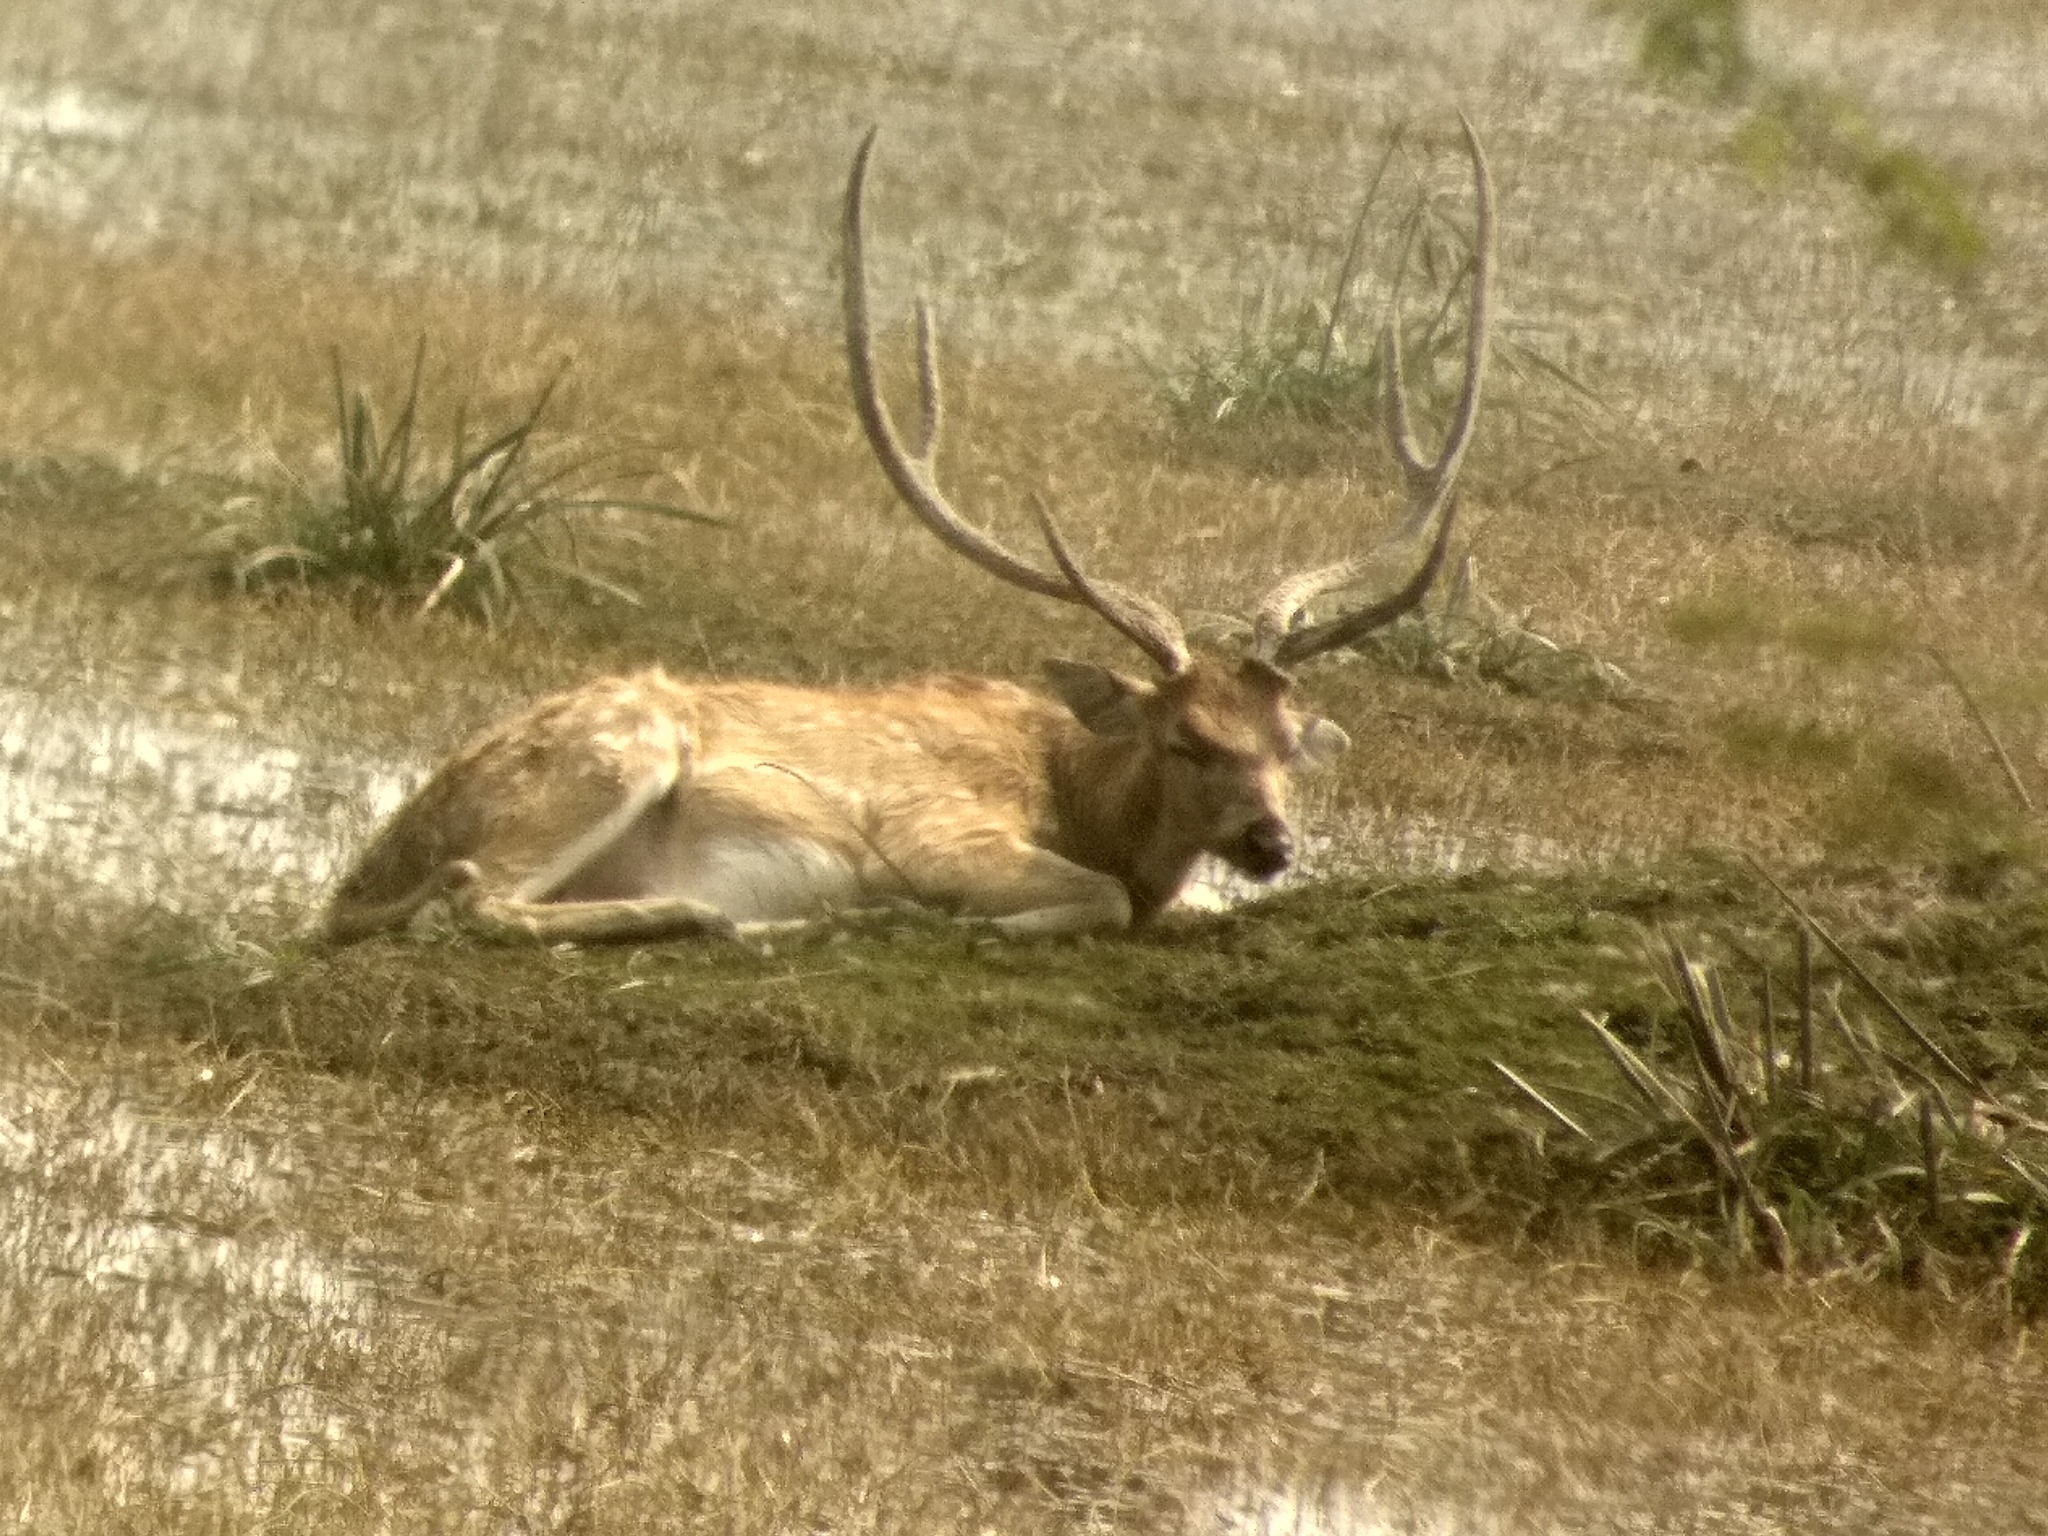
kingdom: Animalia
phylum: Chordata
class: Mammalia
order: Artiodactyla
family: Cervidae
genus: Axis
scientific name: Axis axis
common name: Chital
